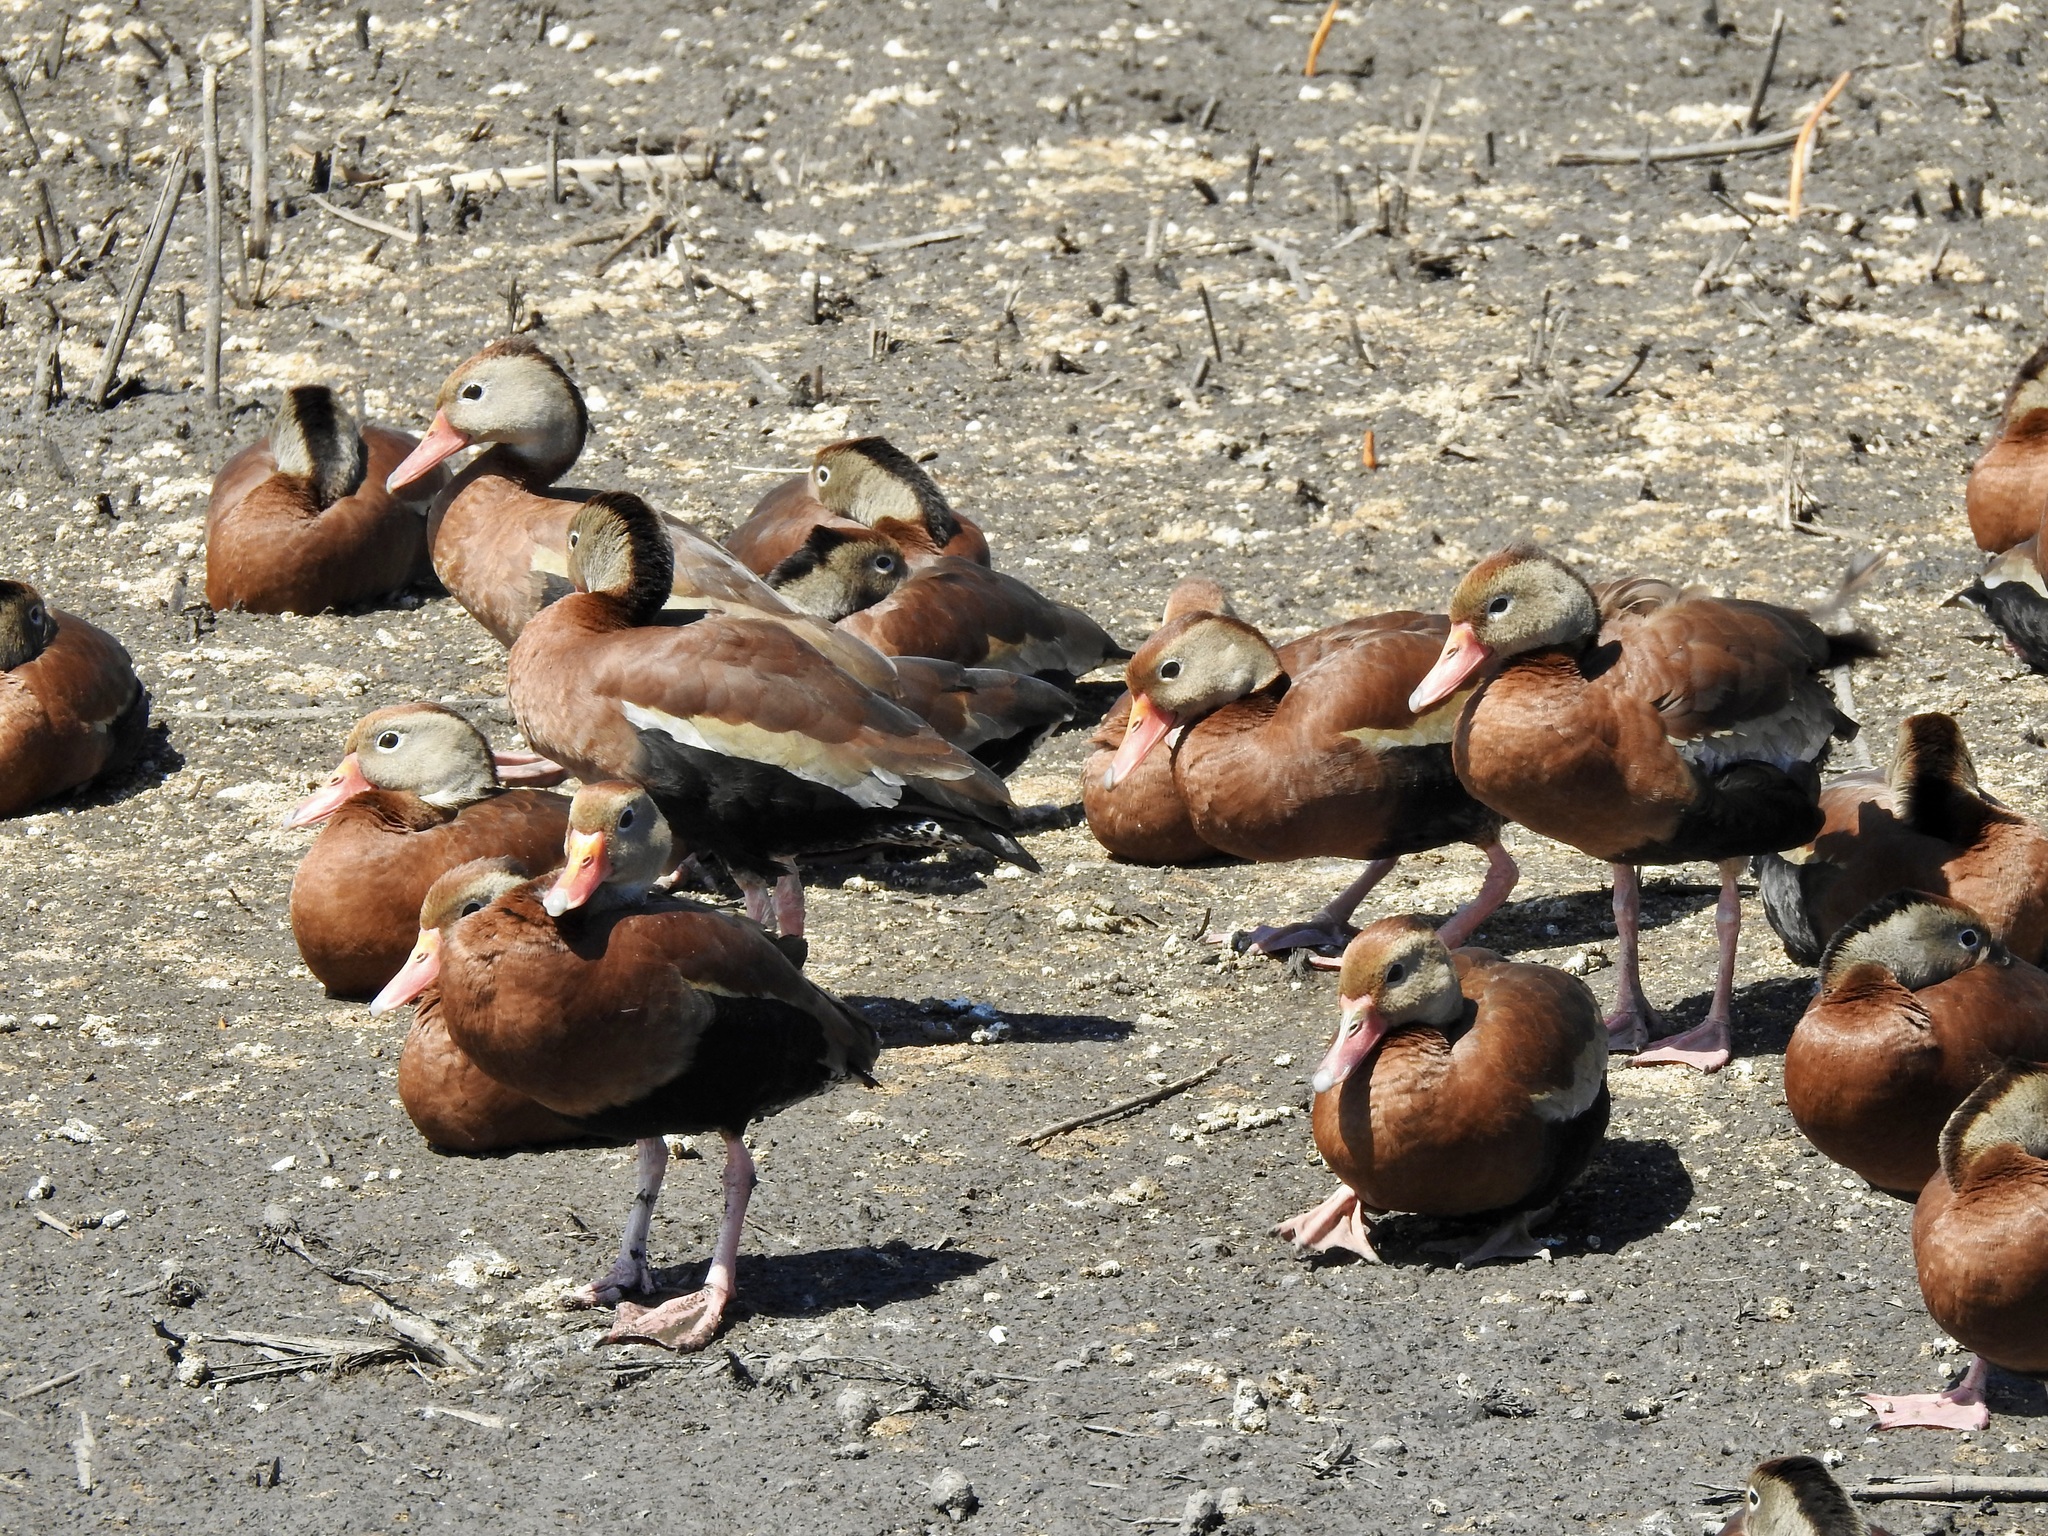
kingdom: Animalia
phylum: Chordata
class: Aves
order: Anseriformes
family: Anatidae
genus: Dendrocygna
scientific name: Dendrocygna autumnalis
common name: Black-bellied whistling duck
